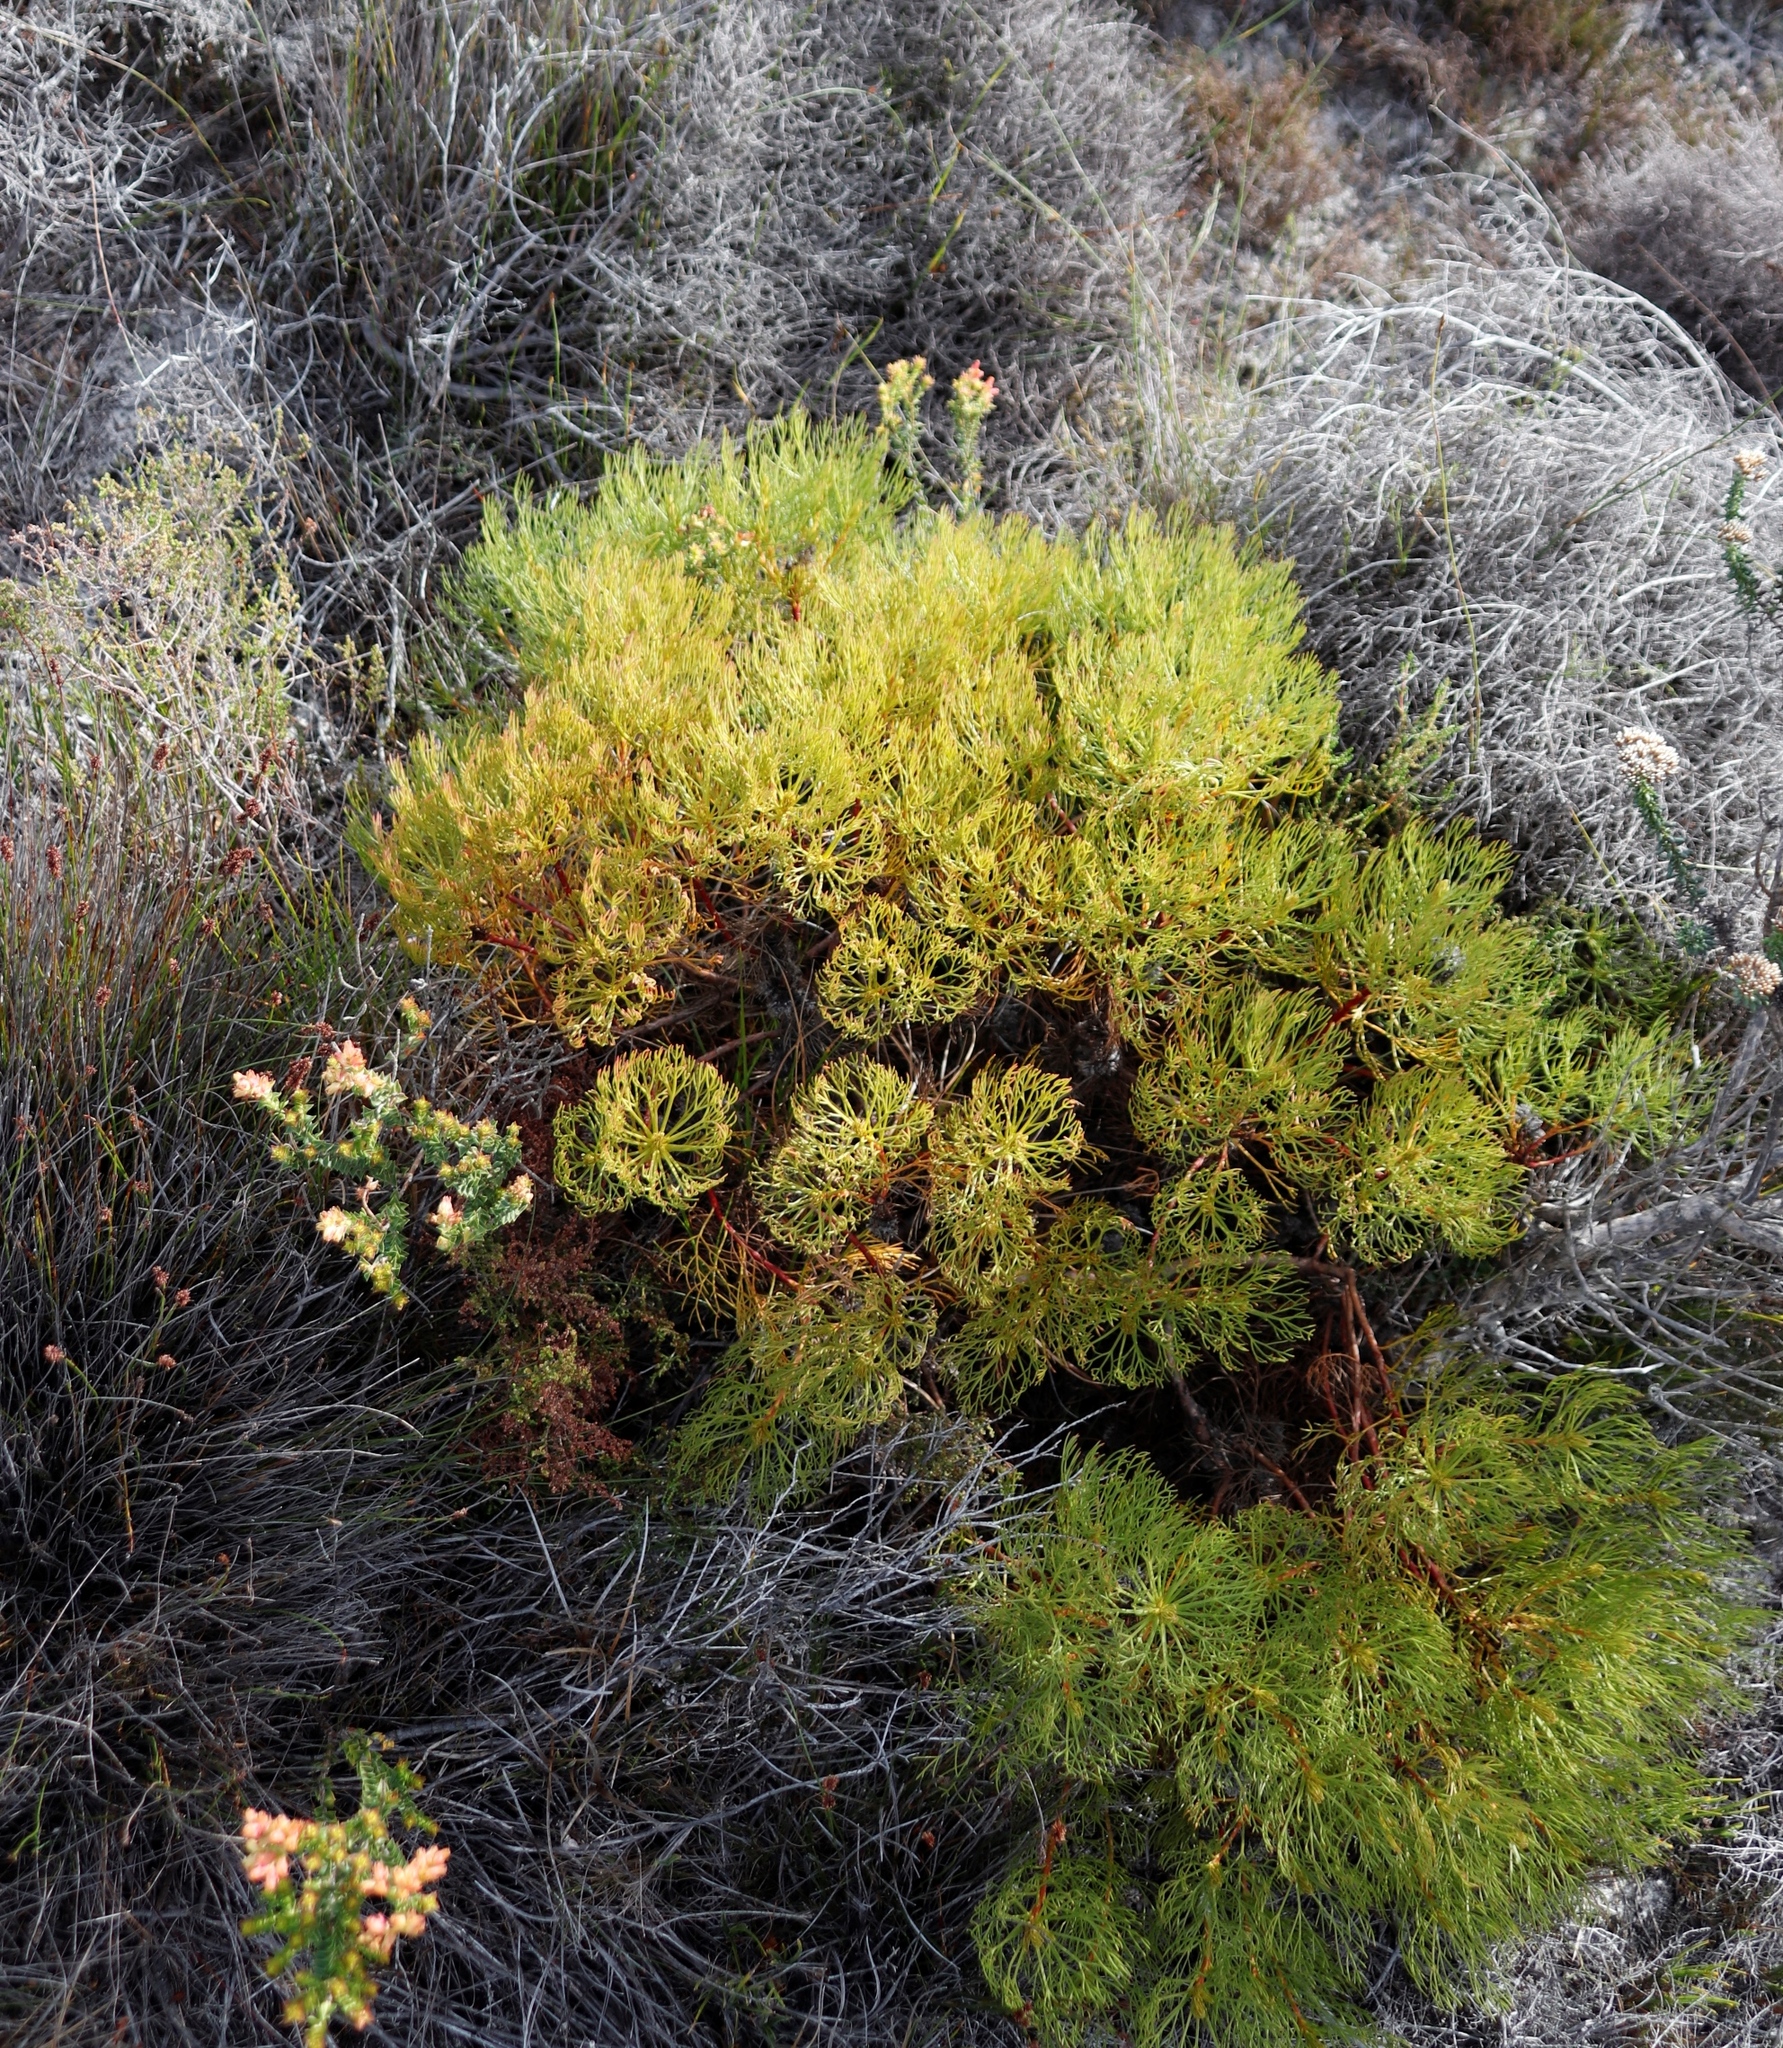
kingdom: Plantae
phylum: Tracheophyta
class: Magnoliopsida
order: Proteales
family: Proteaceae
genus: Serruria
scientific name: Serruria glomerata
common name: Cluster spiderhead
